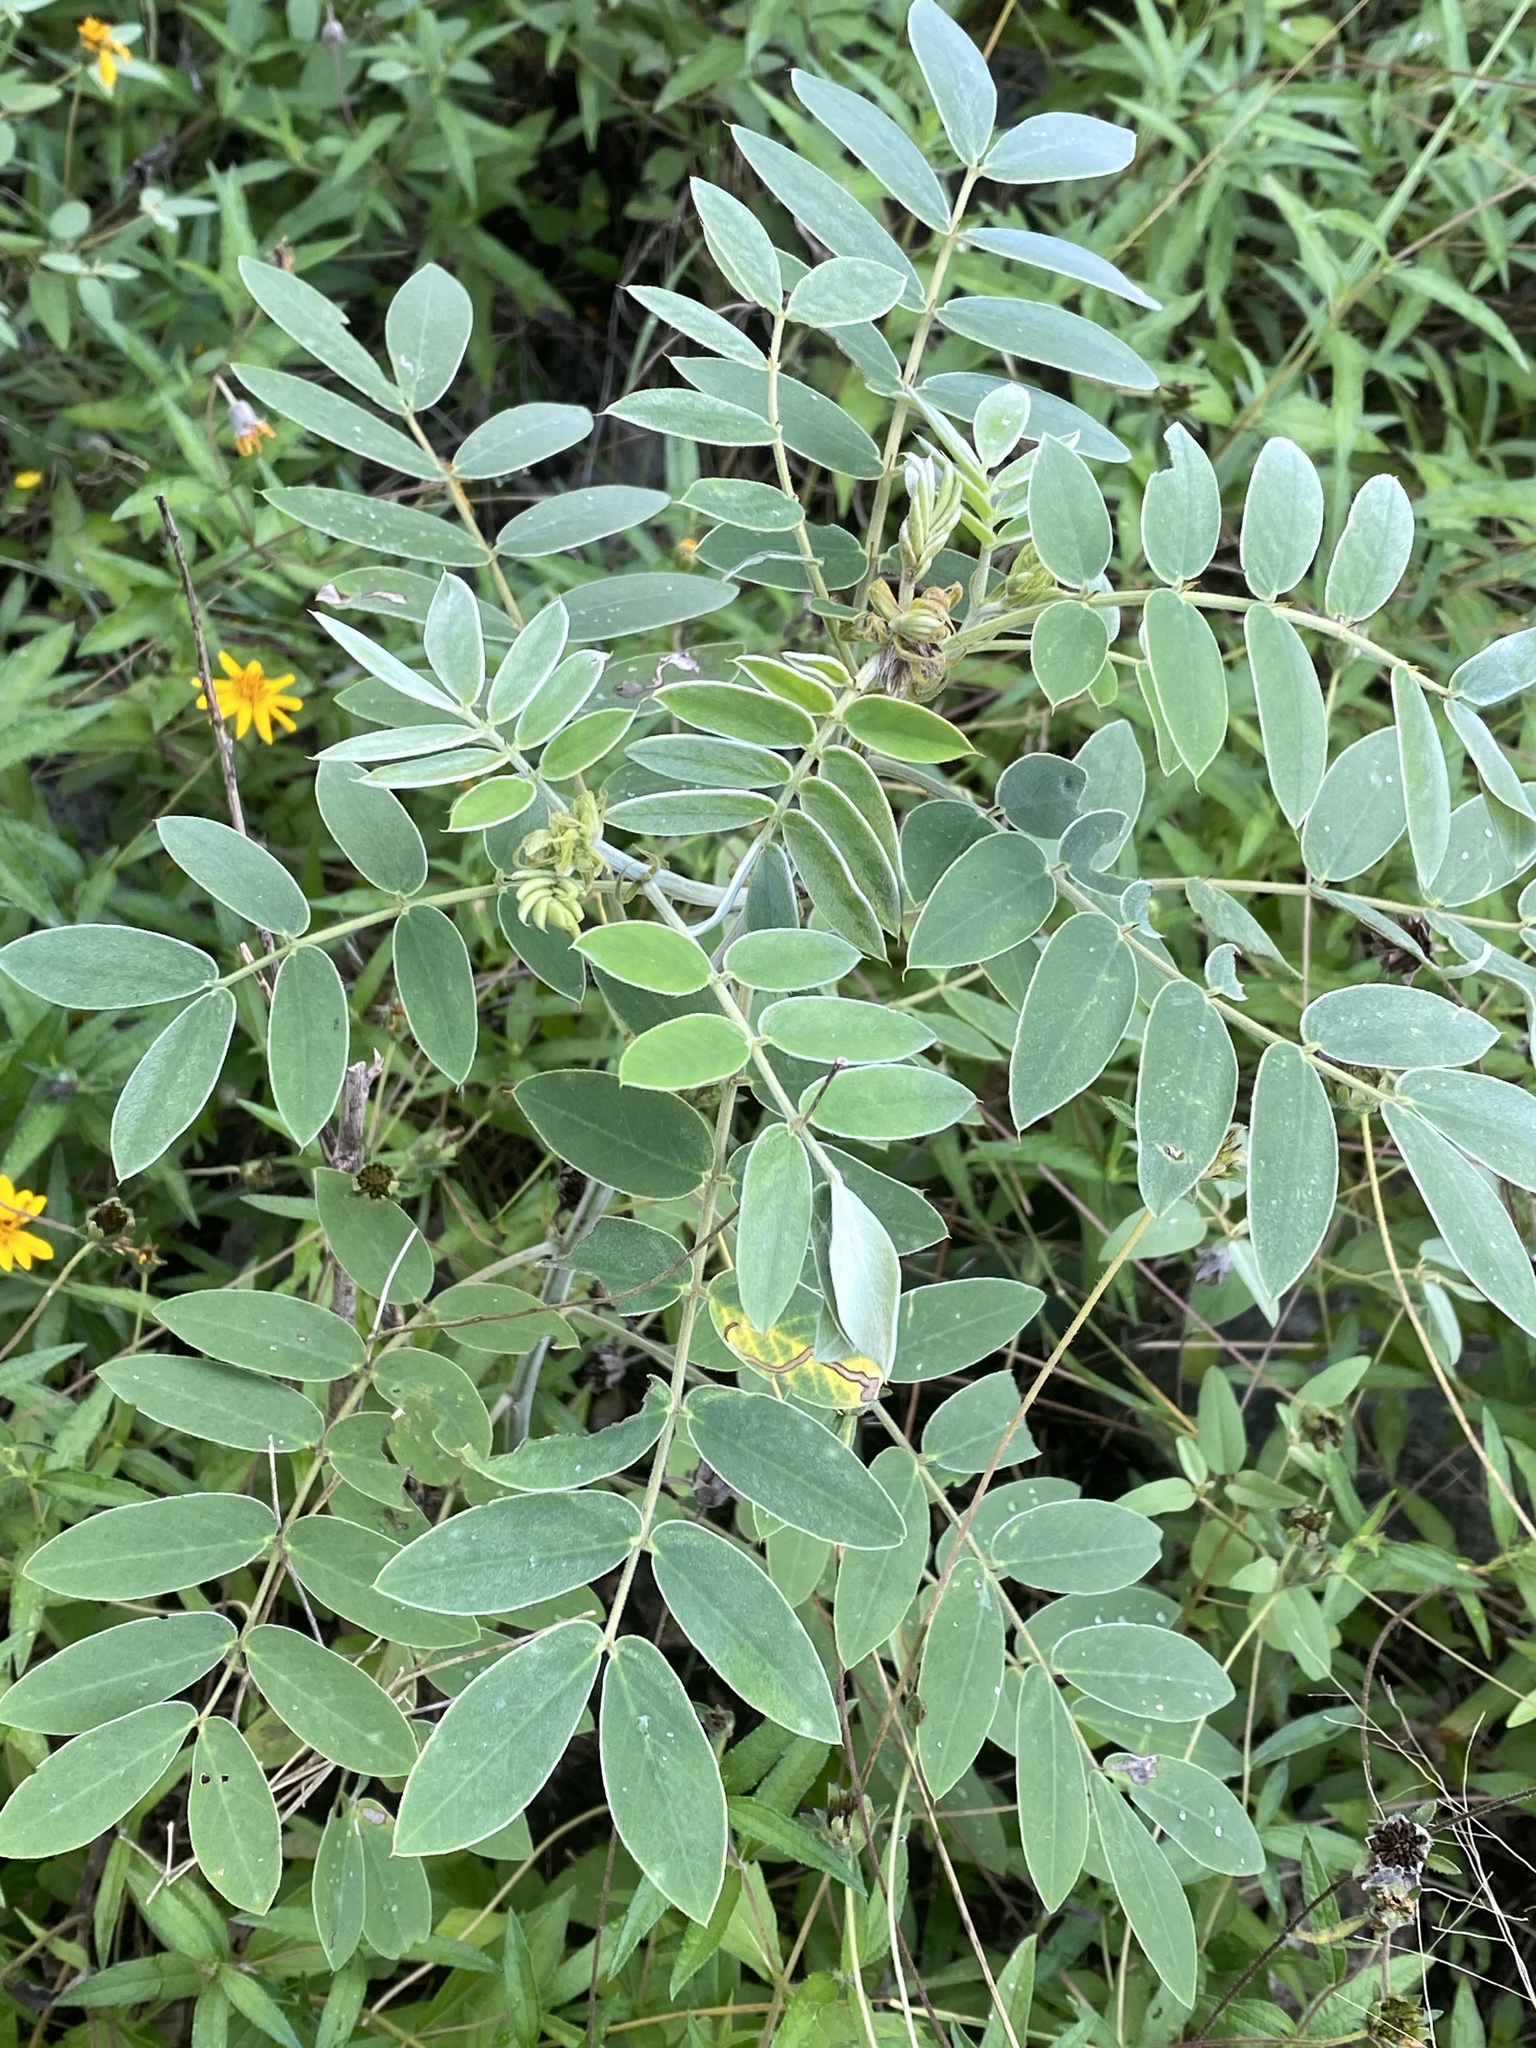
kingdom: Plantae
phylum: Tracheophyta
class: Magnoliopsida
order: Fabales
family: Fabaceae
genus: Senna
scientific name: Senna lindheimeriana
